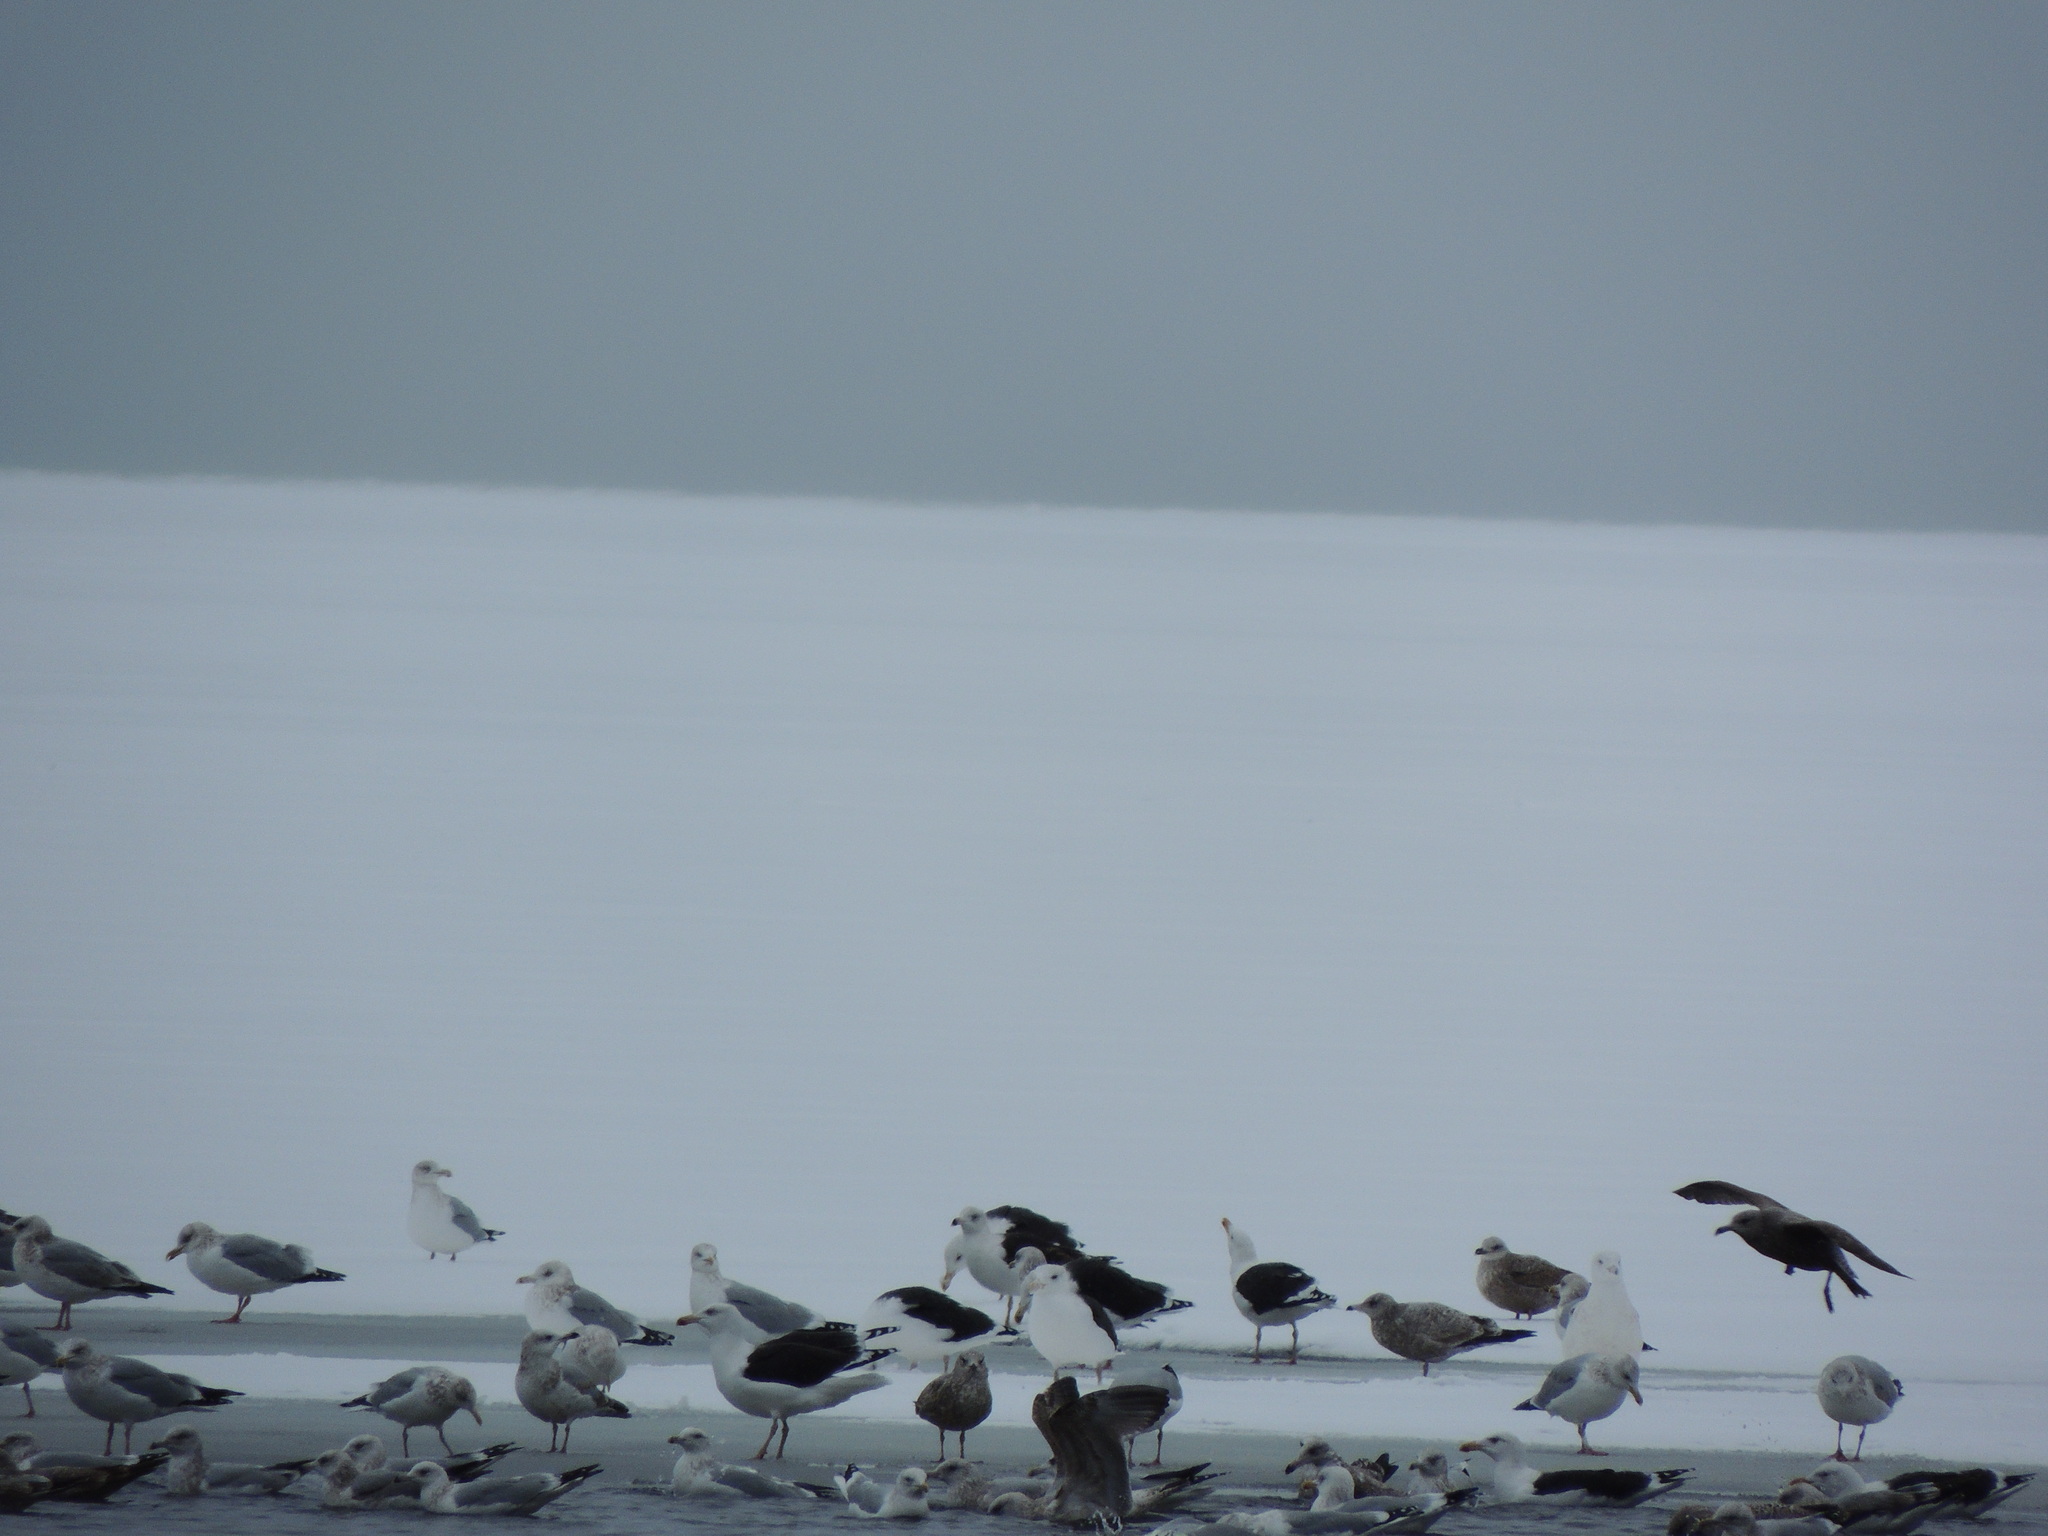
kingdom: Animalia
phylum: Chordata
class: Aves
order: Charadriiformes
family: Laridae
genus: Larus
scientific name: Larus marinus
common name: Great black-backed gull
